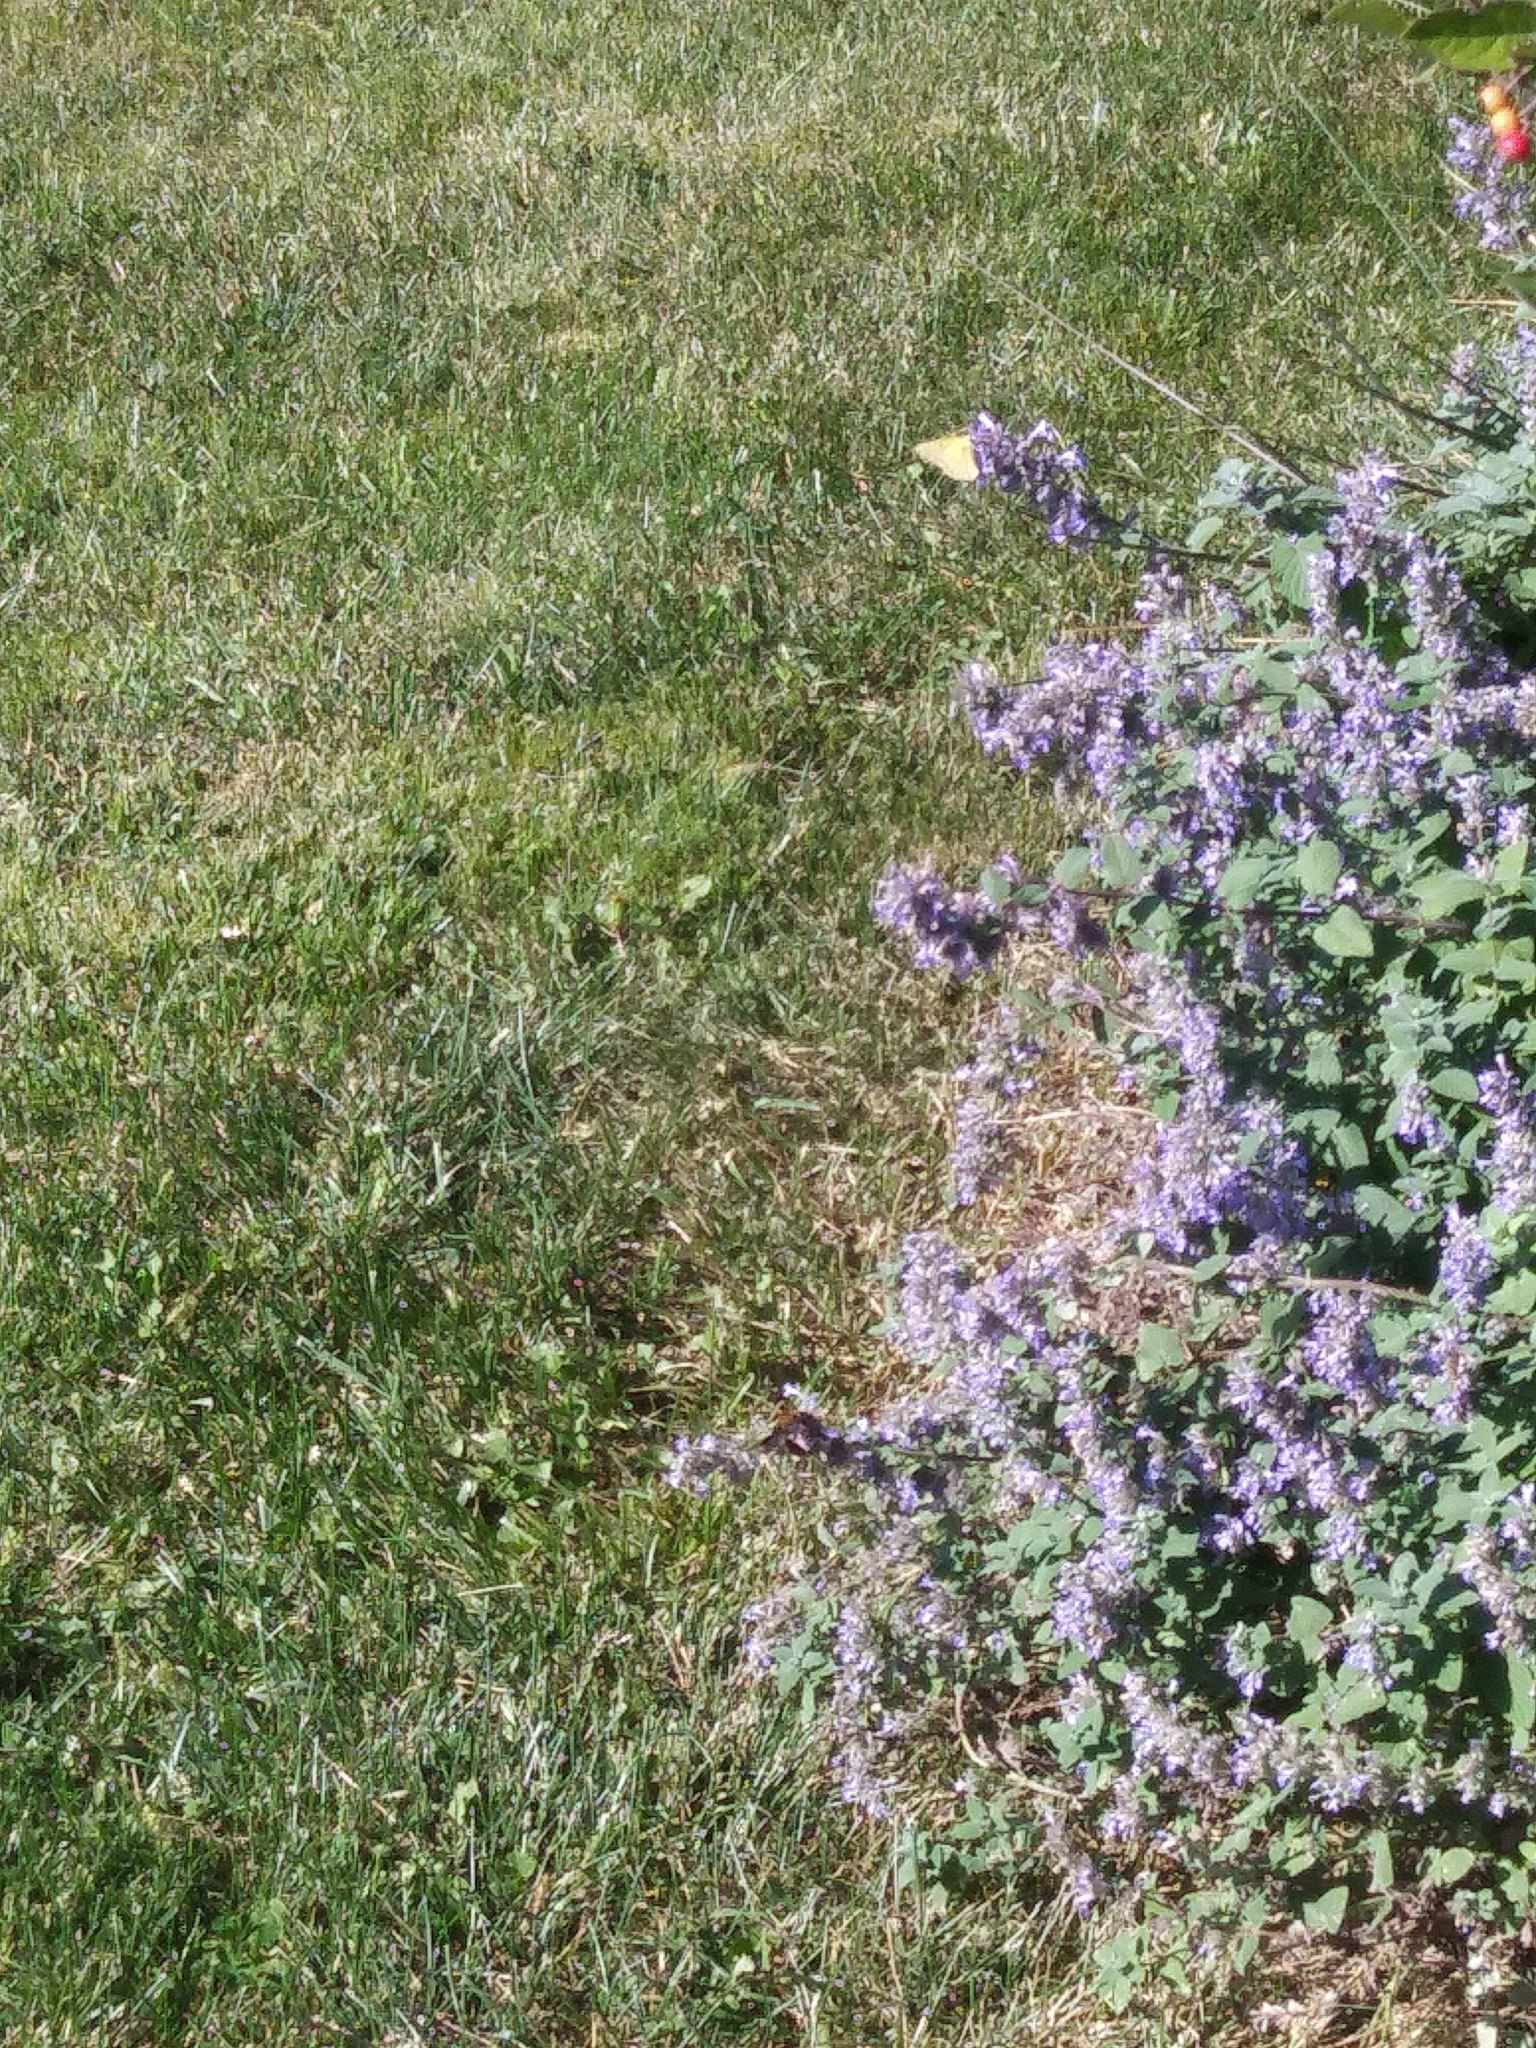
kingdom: Animalia
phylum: Arthropoda
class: Insecta
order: Lepidoptera
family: Pieridae
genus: Colias
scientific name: Colias eurytheme
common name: Alfalfa butterfly
